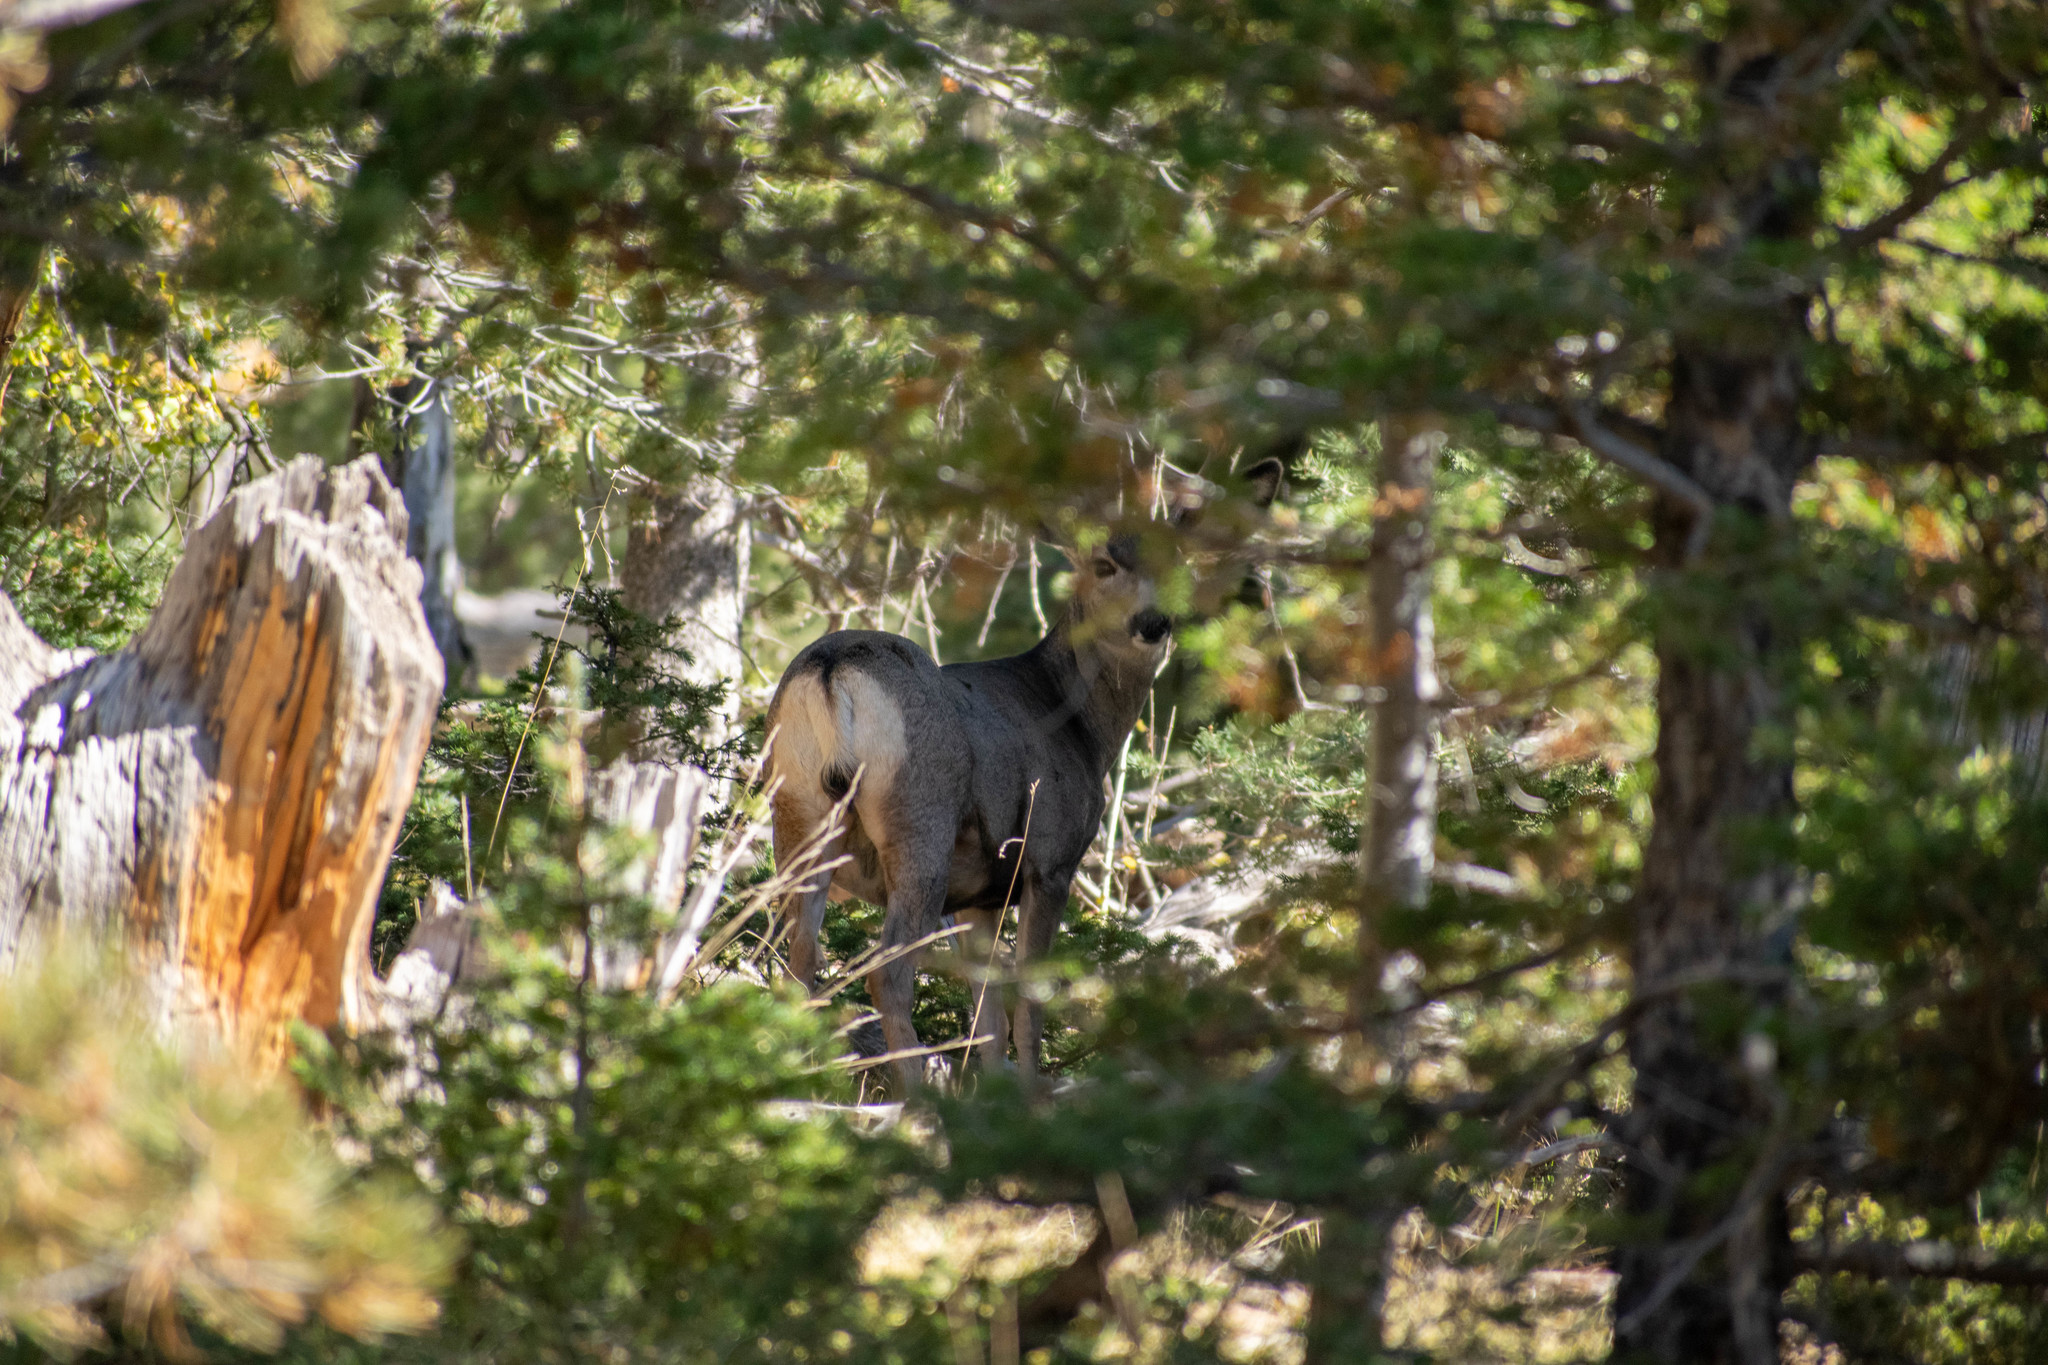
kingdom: Animalia
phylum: Chordata
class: Mammalia
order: Artiodactyla
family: Cervidae
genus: Odocoileus
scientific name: Odocoileus hemionus
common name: Mule deer
